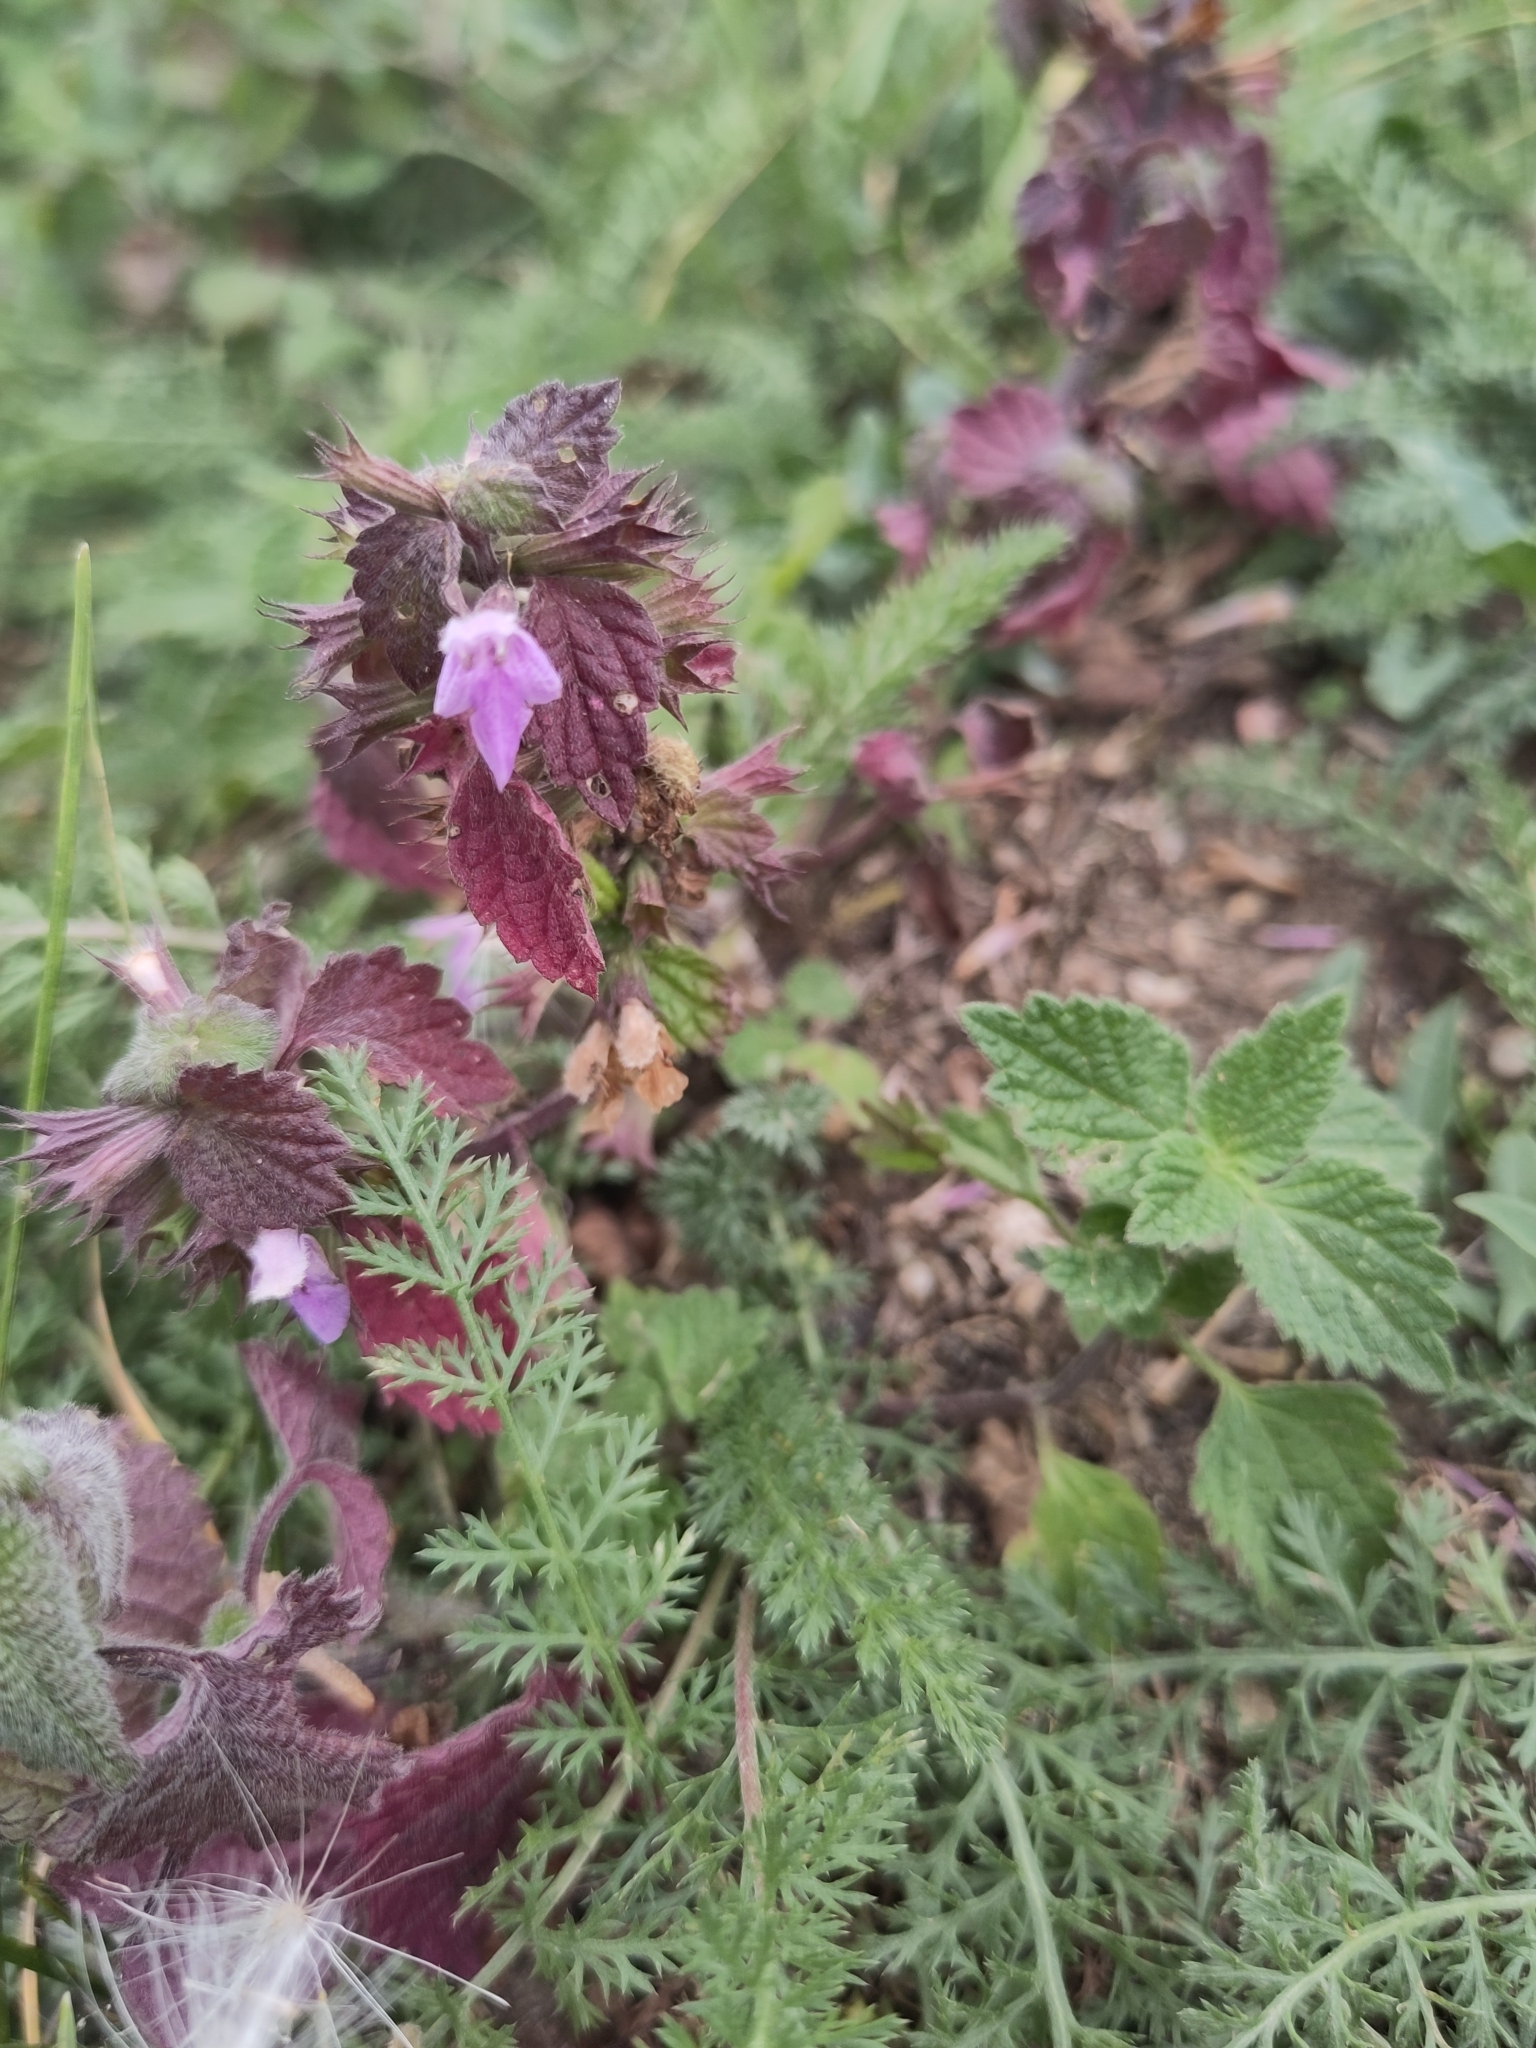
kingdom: Plantae
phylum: Tracheophyta
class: Magnoliopsida
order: Lamiales
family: Lamiaceae
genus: Ballota
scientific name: Ballota nigra
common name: Black horehound
